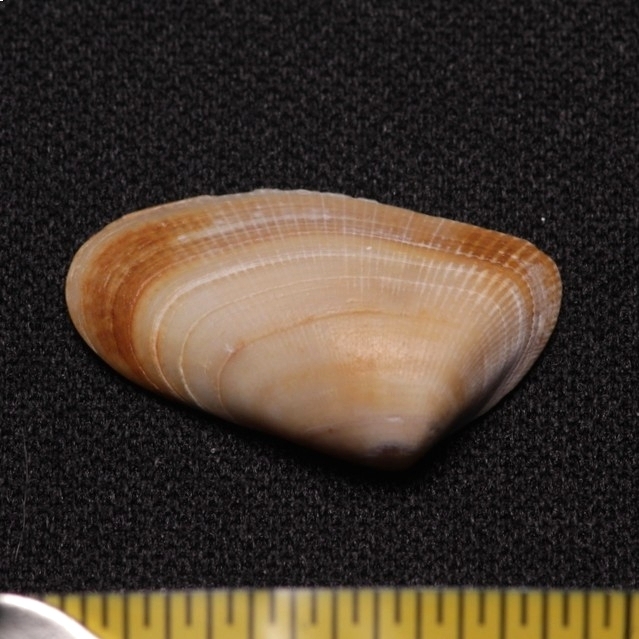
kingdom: Animalia
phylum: Mollusca
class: Bivalvia
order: Cardiida
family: Donacidae
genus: Donax
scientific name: Donax variabilis
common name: Butterfly shell
